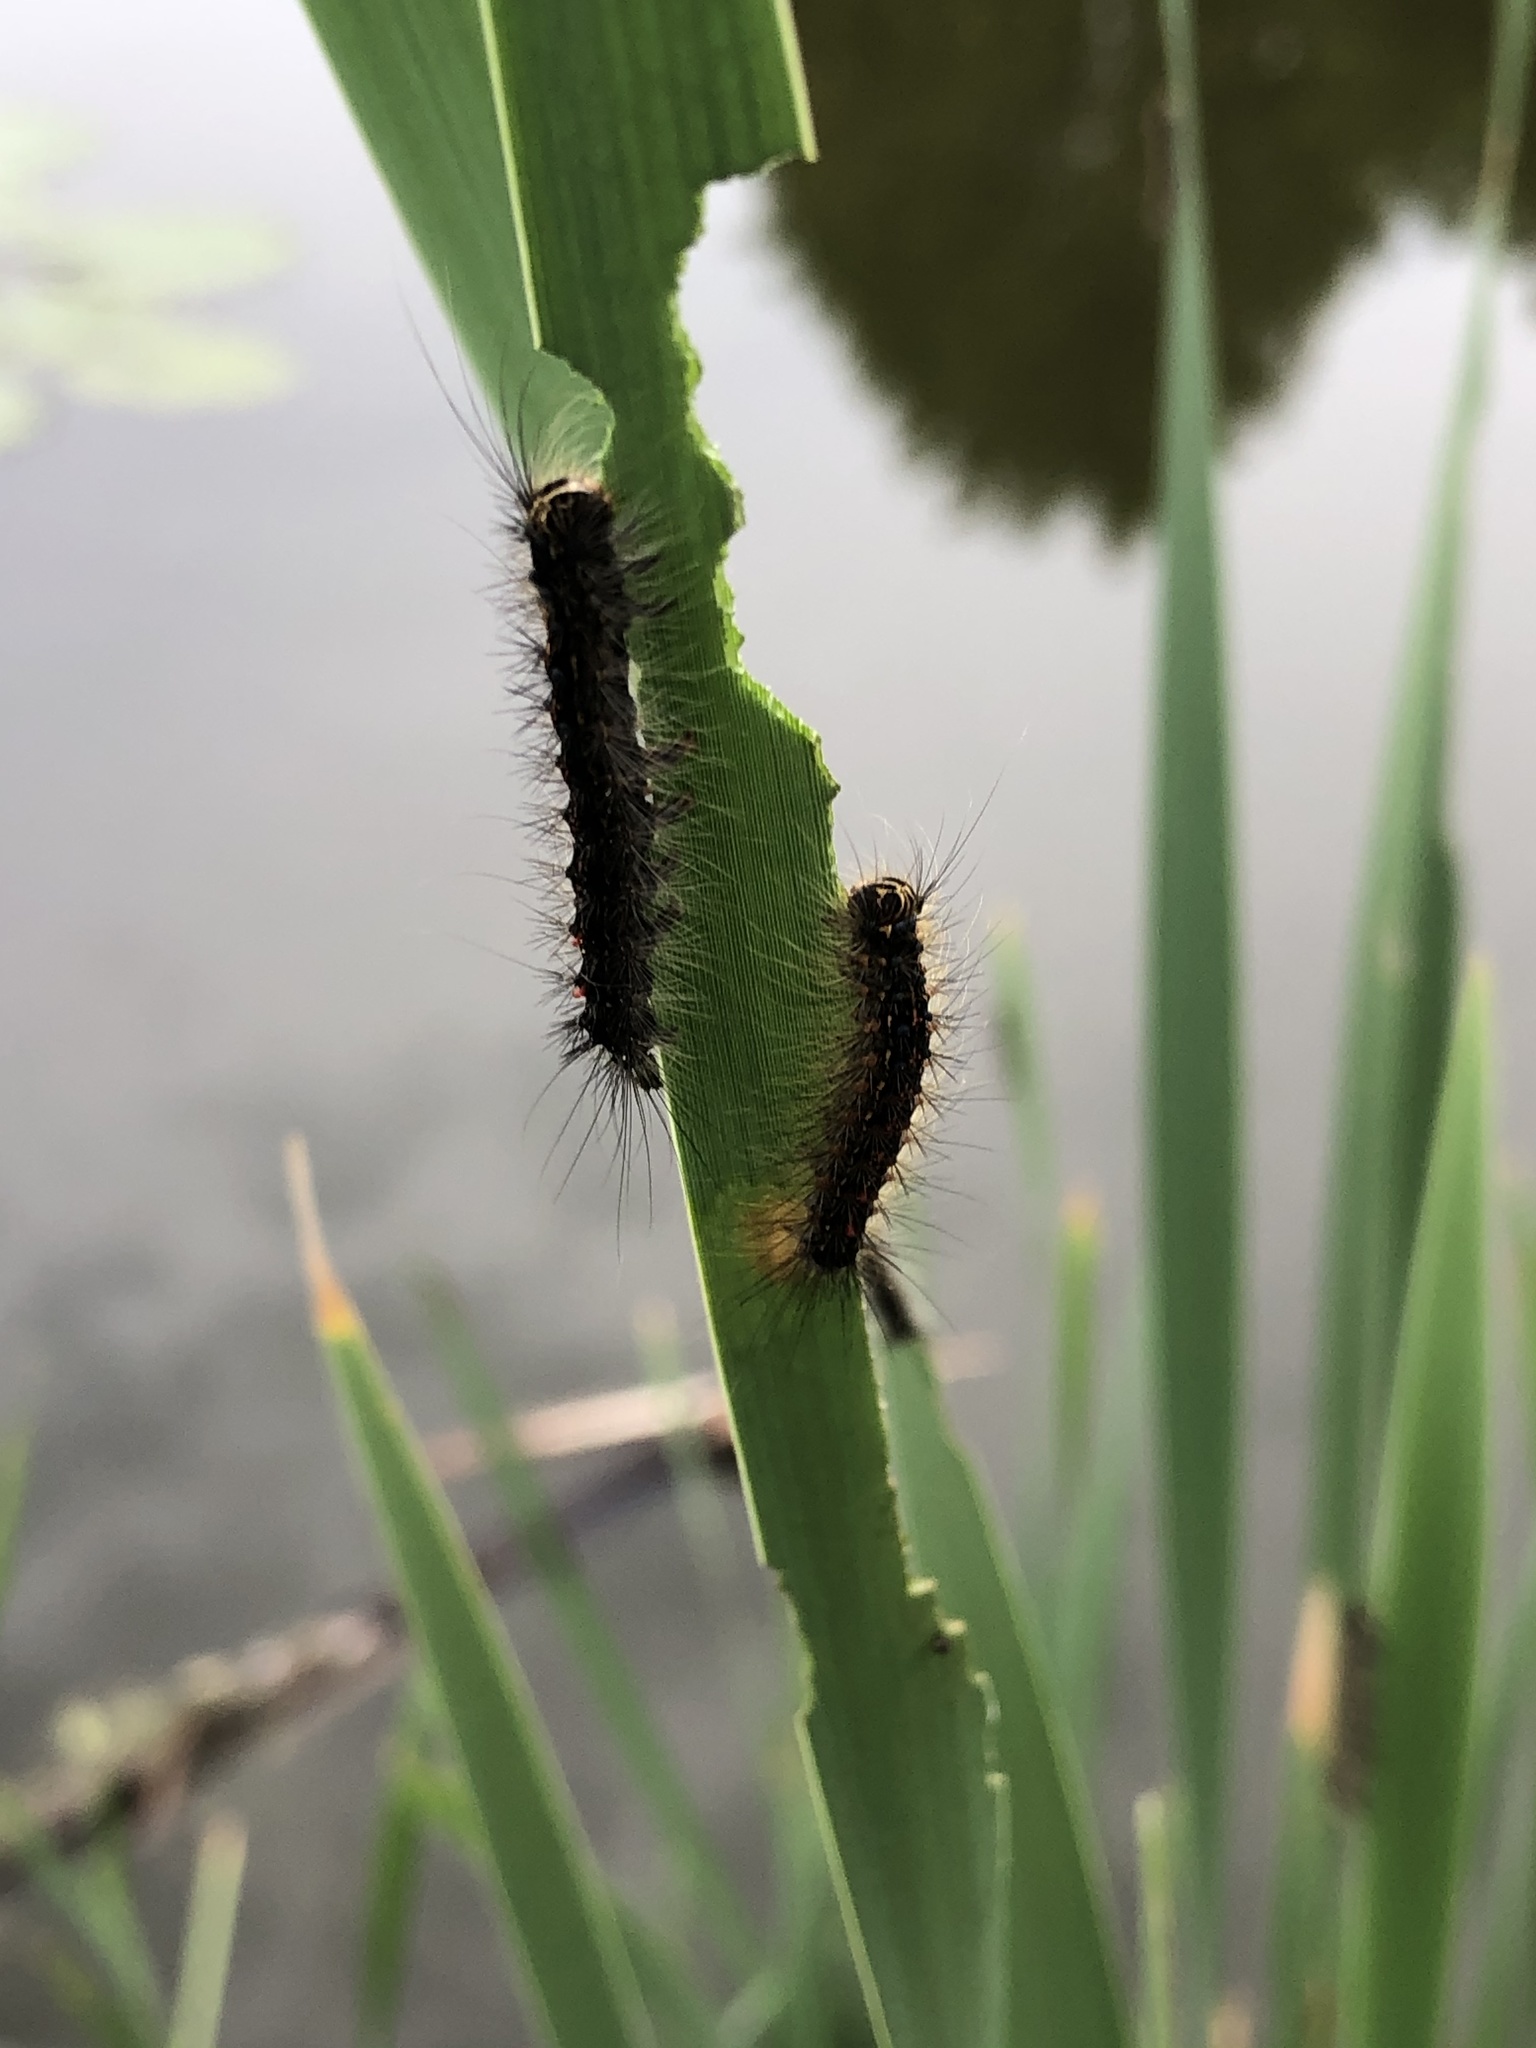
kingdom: Animalia
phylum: Arthropoda
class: Insecta
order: Lepidoptera
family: Erebidae
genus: Lymantria
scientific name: Lymantria dispar
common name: Gypsy moth
